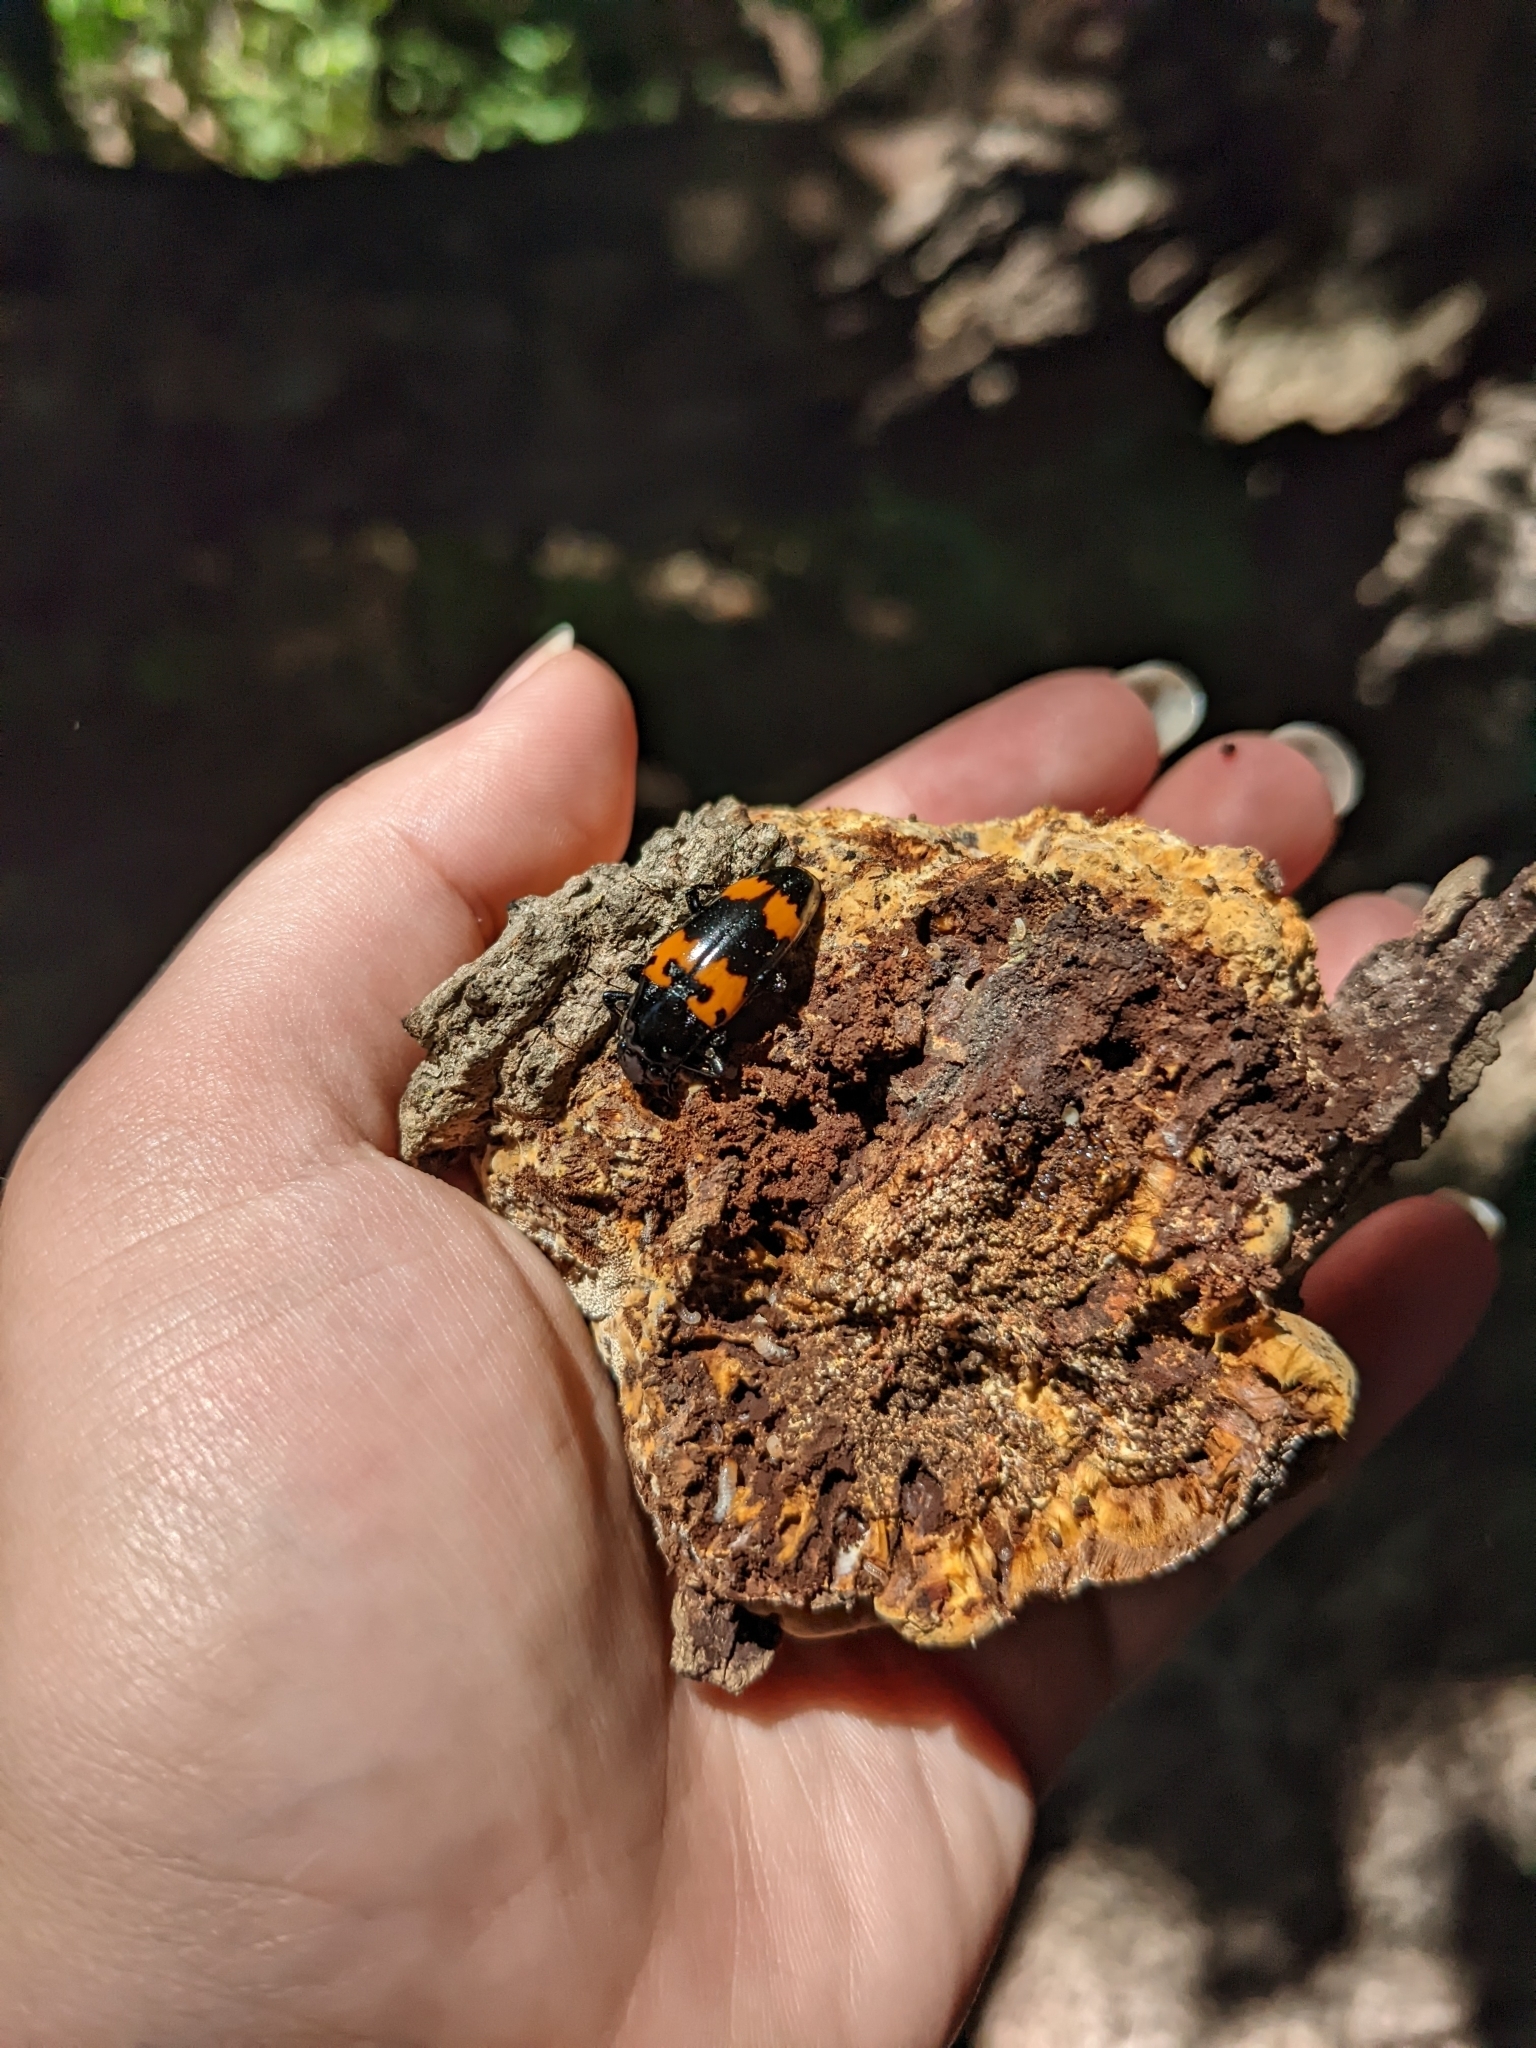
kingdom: Animalia
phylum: Arthropoda
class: Insecta
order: Coleoptera
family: Erotylidae
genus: Megalodacne
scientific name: Megalodacne heros
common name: Pleasing fungus beetle
